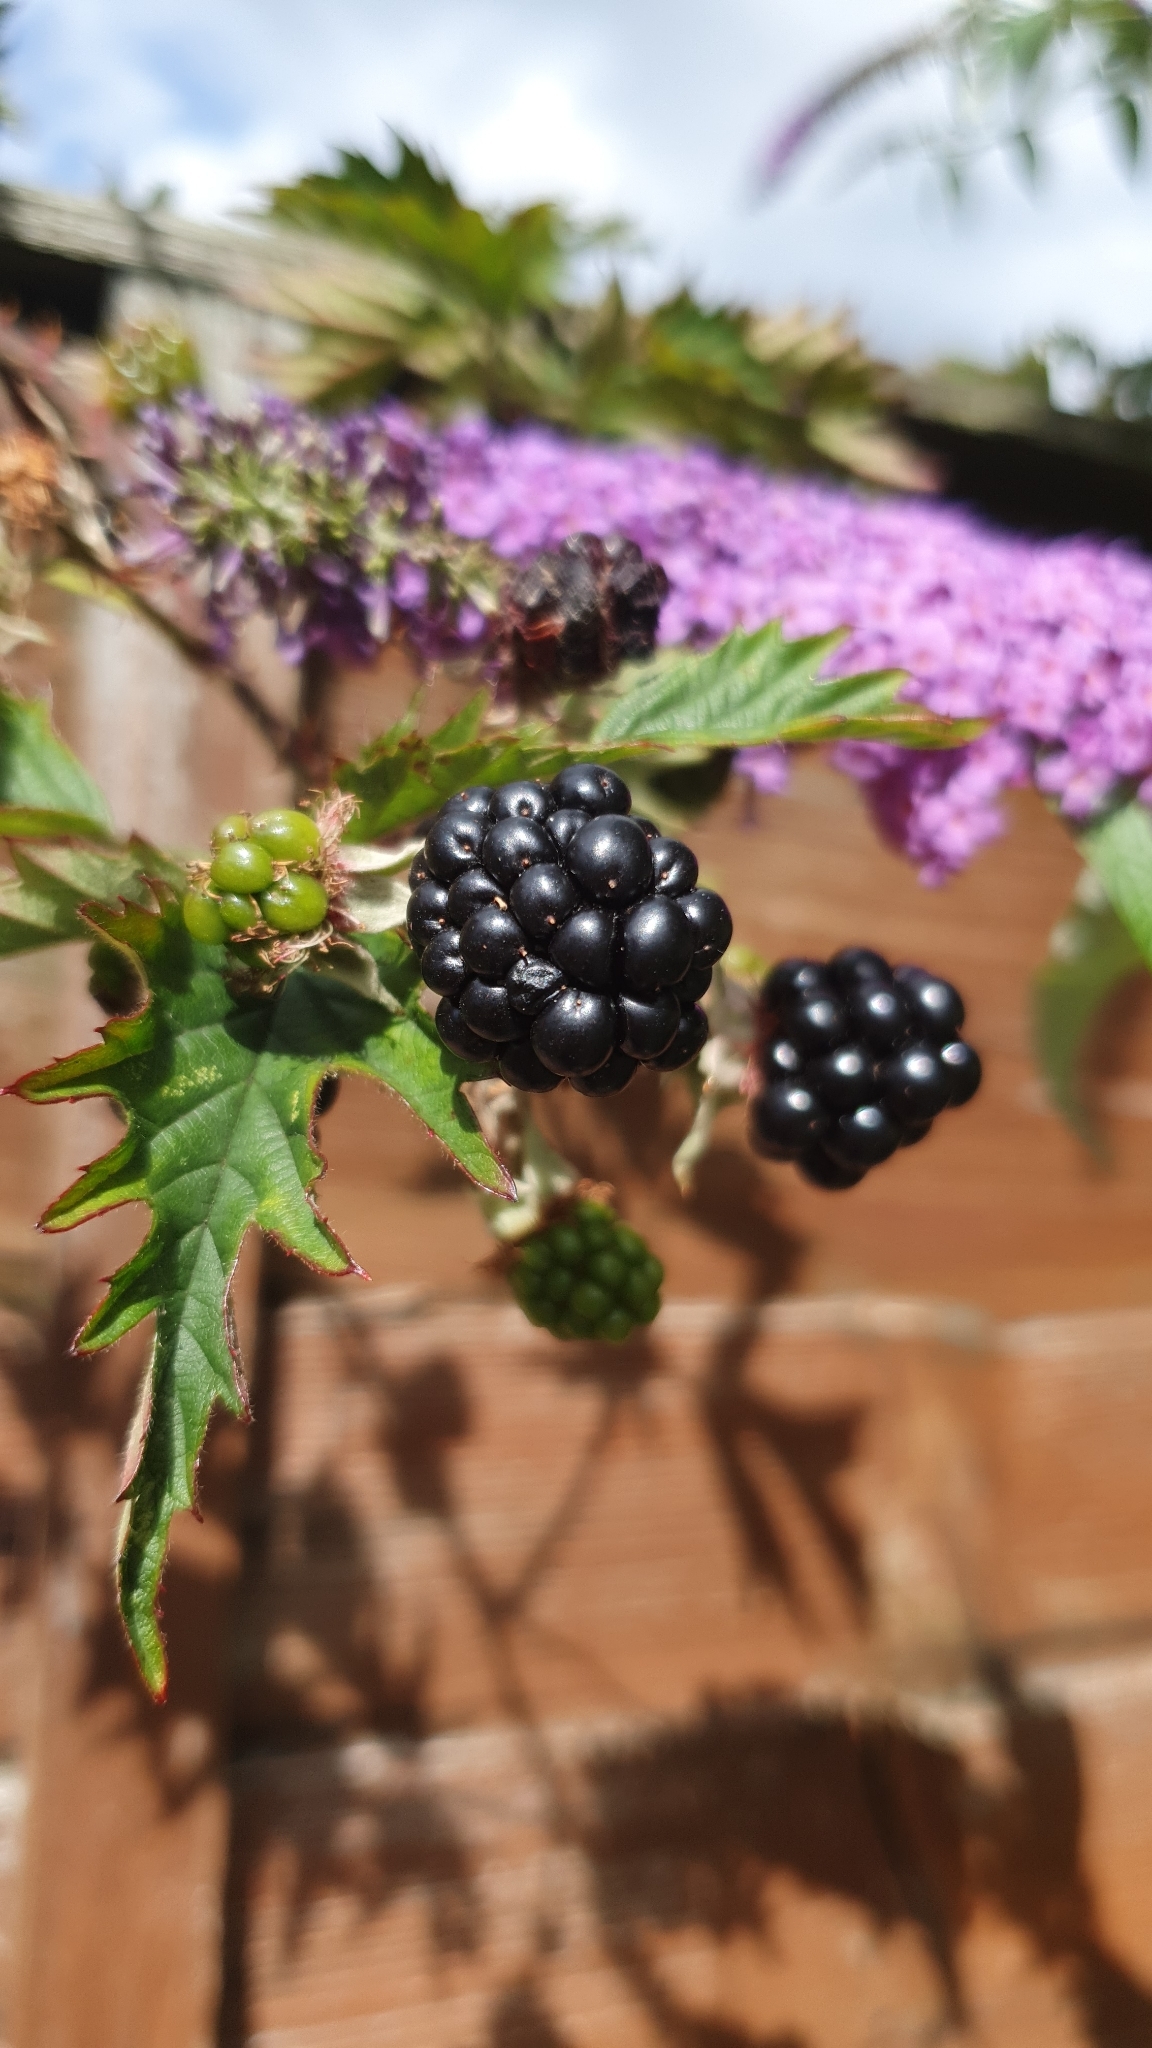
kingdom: Plantae
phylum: Tracheophyta
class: Magnoliopsida
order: Rosales
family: Rosaceae
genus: Rubus
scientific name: Rubus laciniatus
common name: Evergreen blackberry
